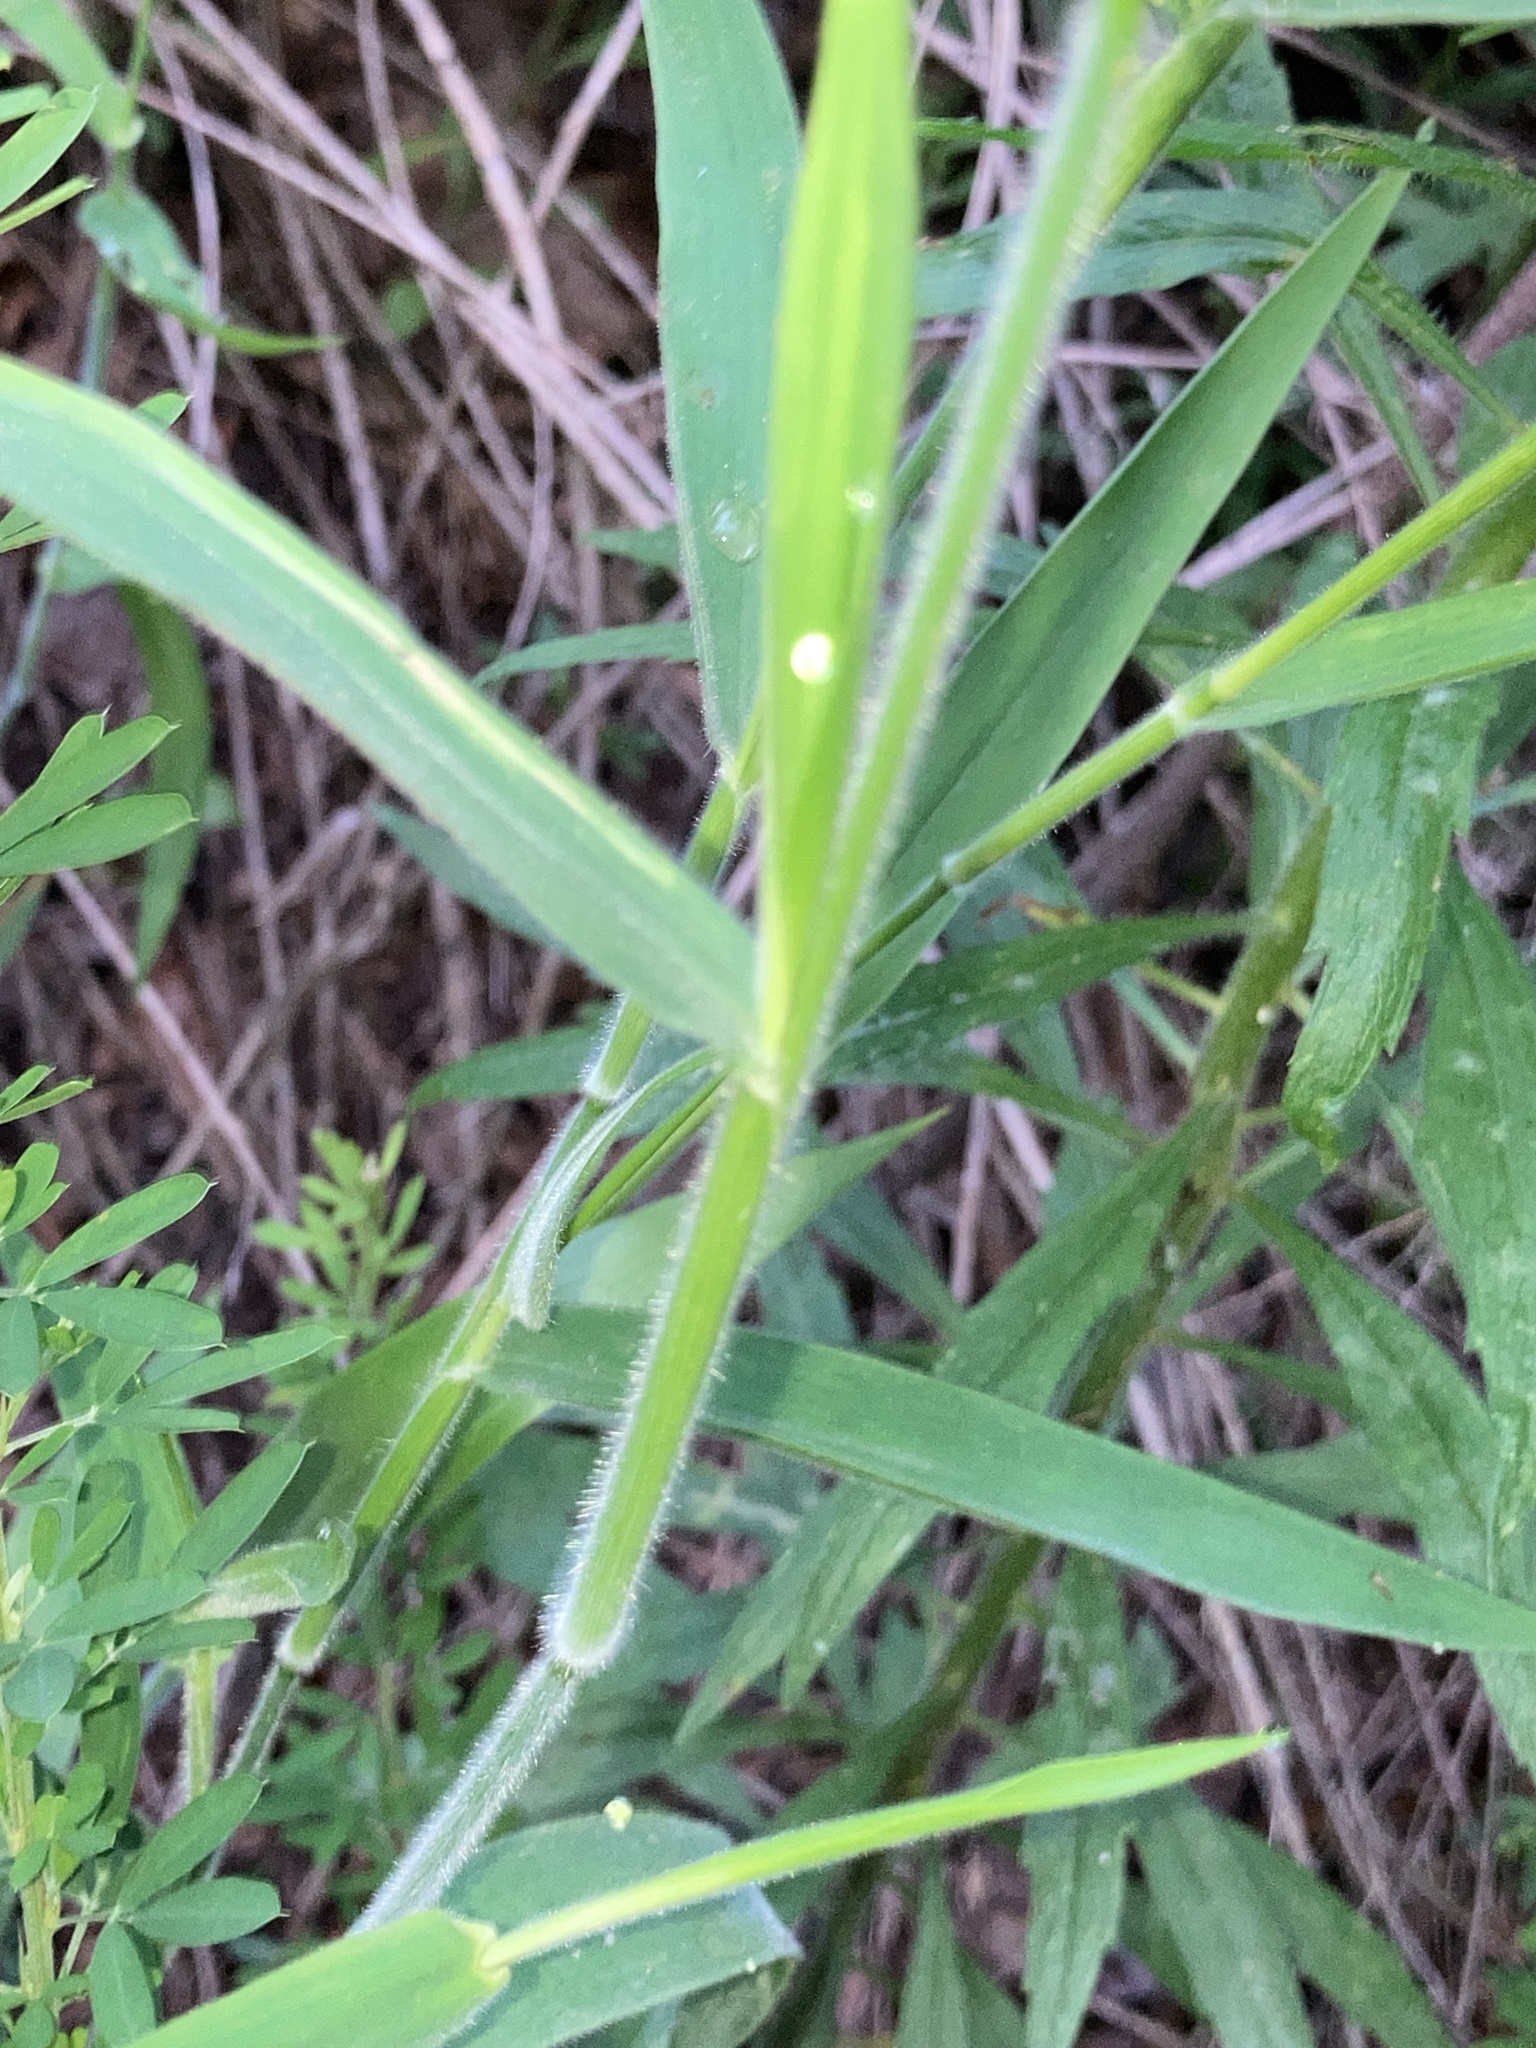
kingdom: Plantae
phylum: Tracheophyta
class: Liliopsida
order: Poales
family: Poaceae
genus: Dichanthelium
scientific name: Dichanthelium scoparium
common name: Velvety panic grass
